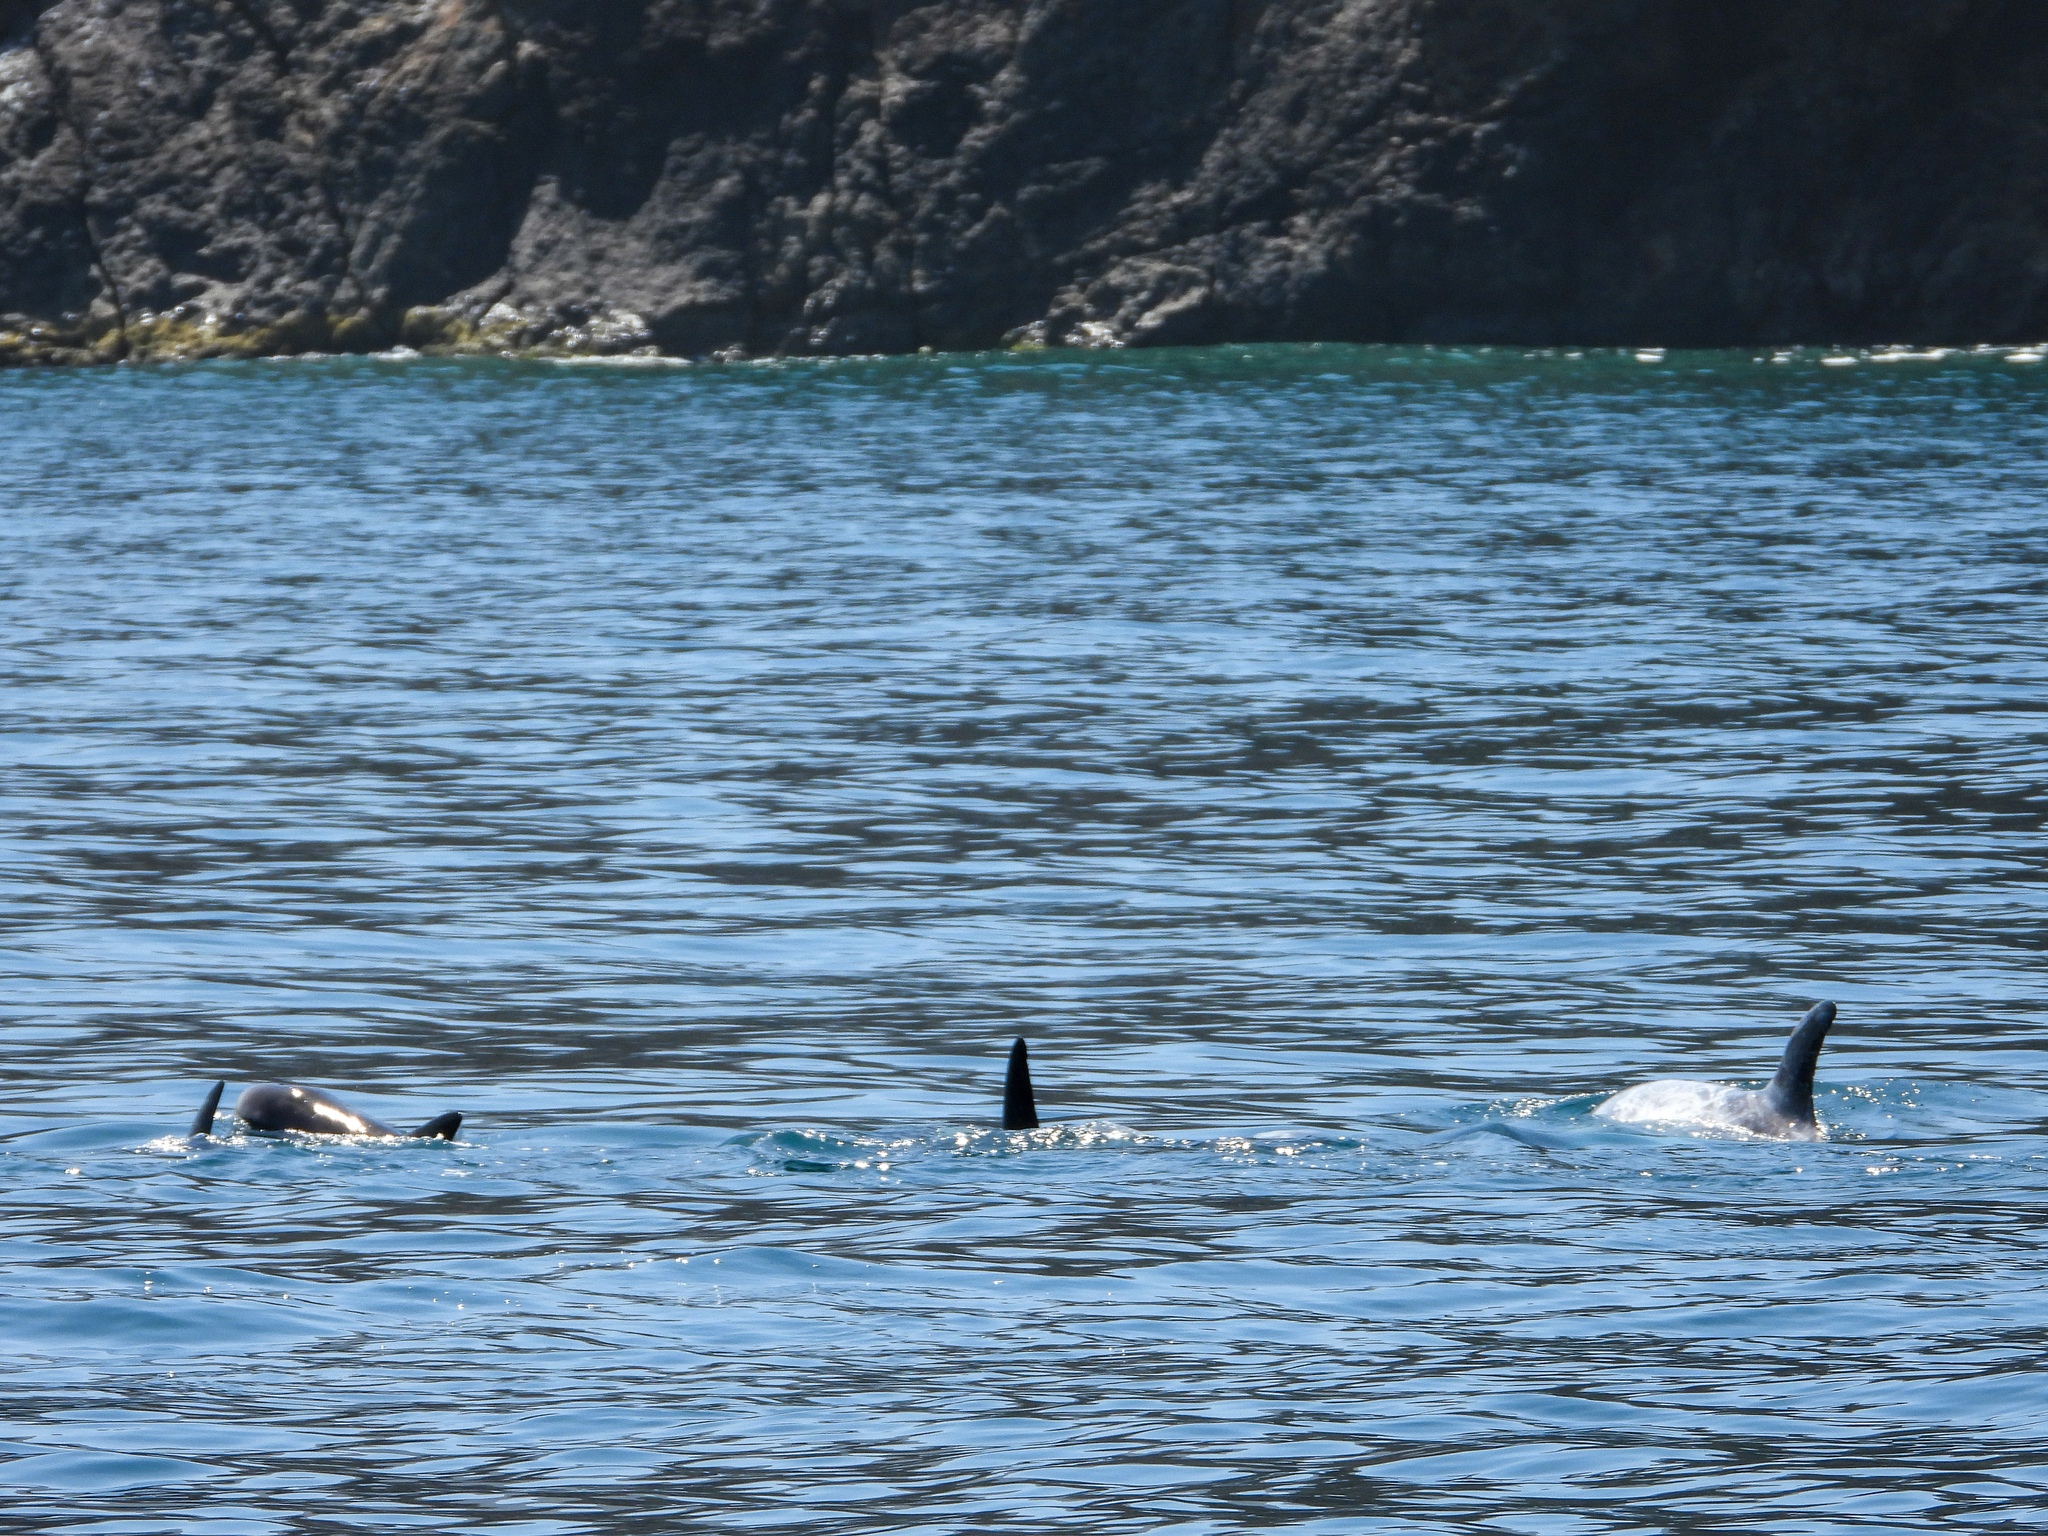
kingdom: Animalia
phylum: Chordata
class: Mammalia
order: Cetacea
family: Delphinidae
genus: Grampus
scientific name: Grampus griseus
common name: Risso's dolphin
